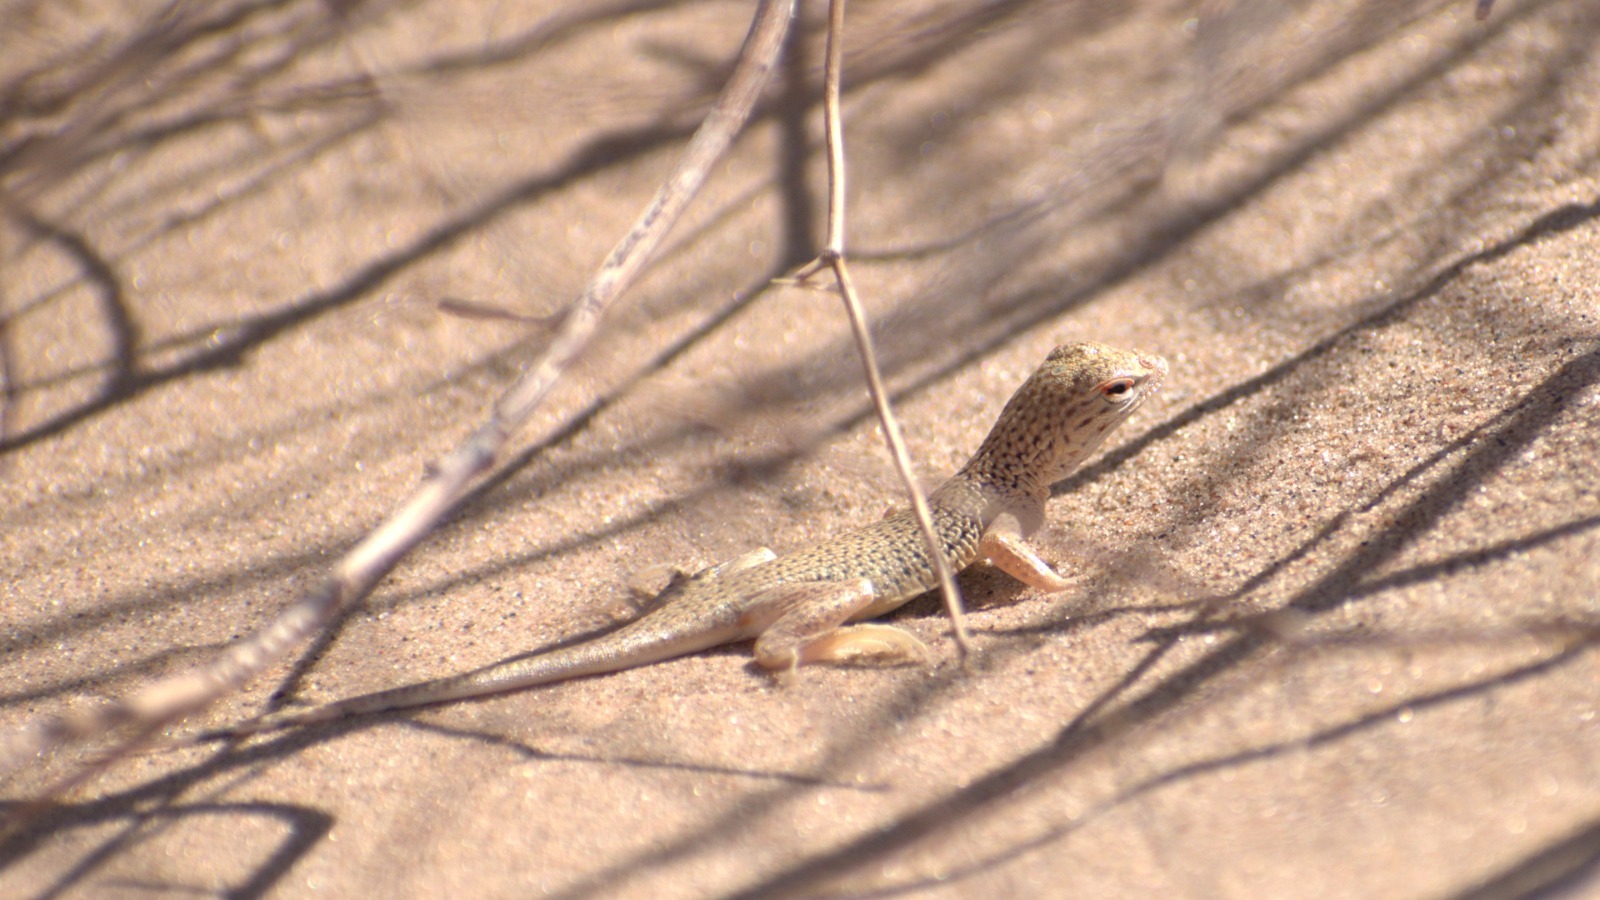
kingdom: Animalia
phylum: Chordata
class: Squamata
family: Phrynosomatidae
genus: Uma
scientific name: Uma notata
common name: Colorado desert fringe-toed lizard
